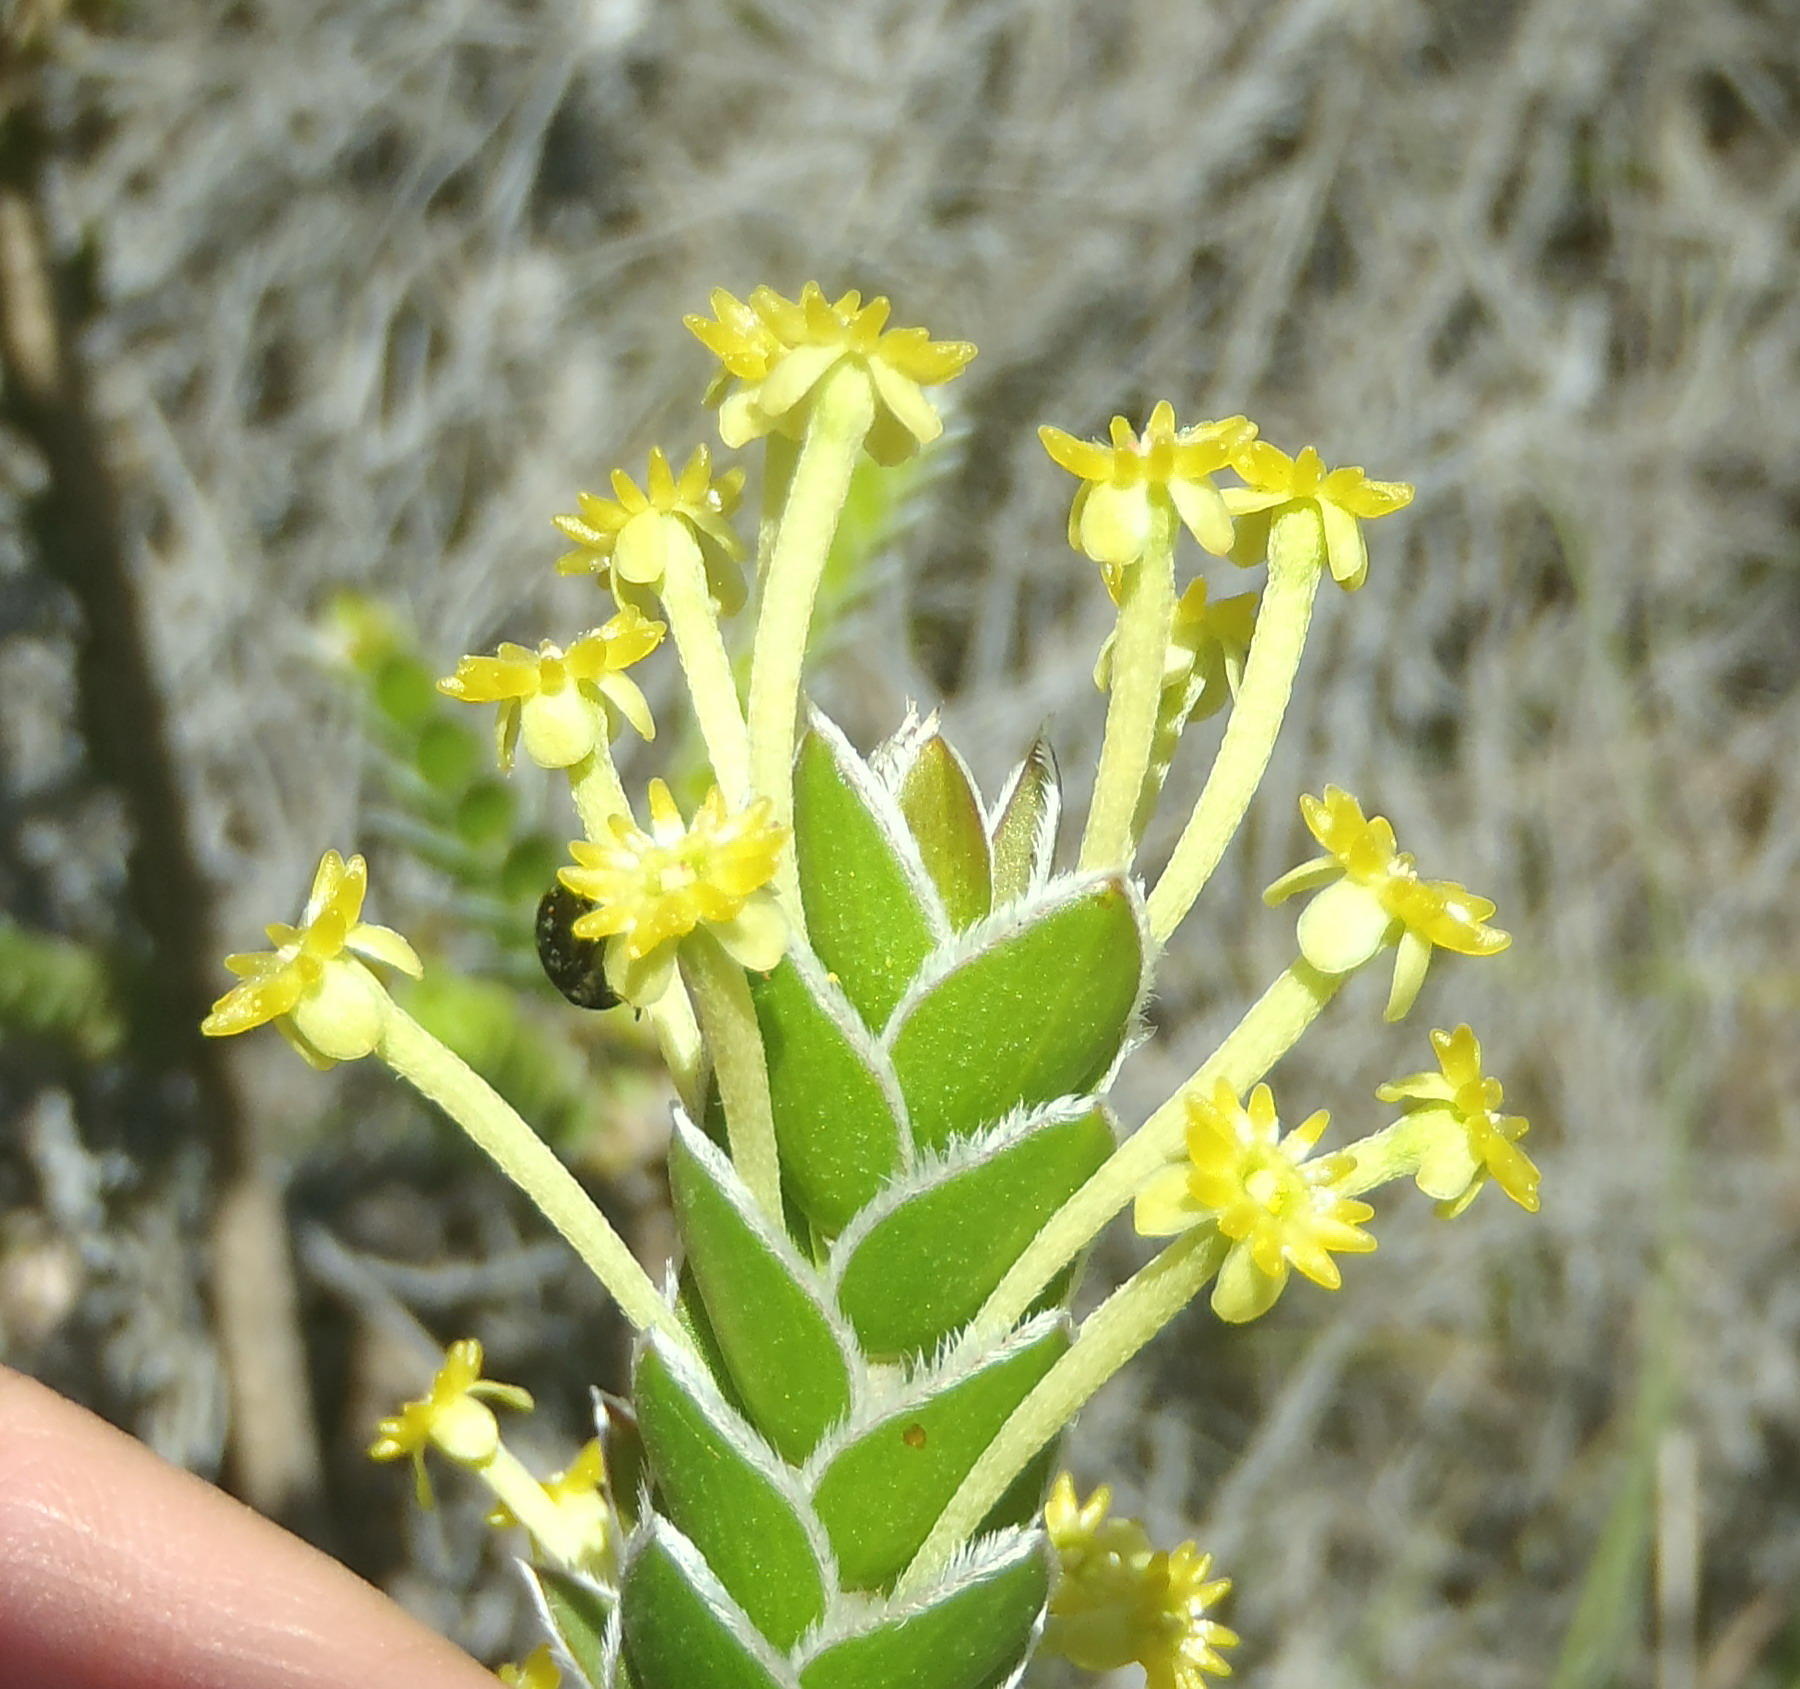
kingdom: Plantae
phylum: Tracheophyta
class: Magnoliopsida
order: Malvales
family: Thymelaeaceae
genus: Struthiola
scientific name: Struthiola argentea
